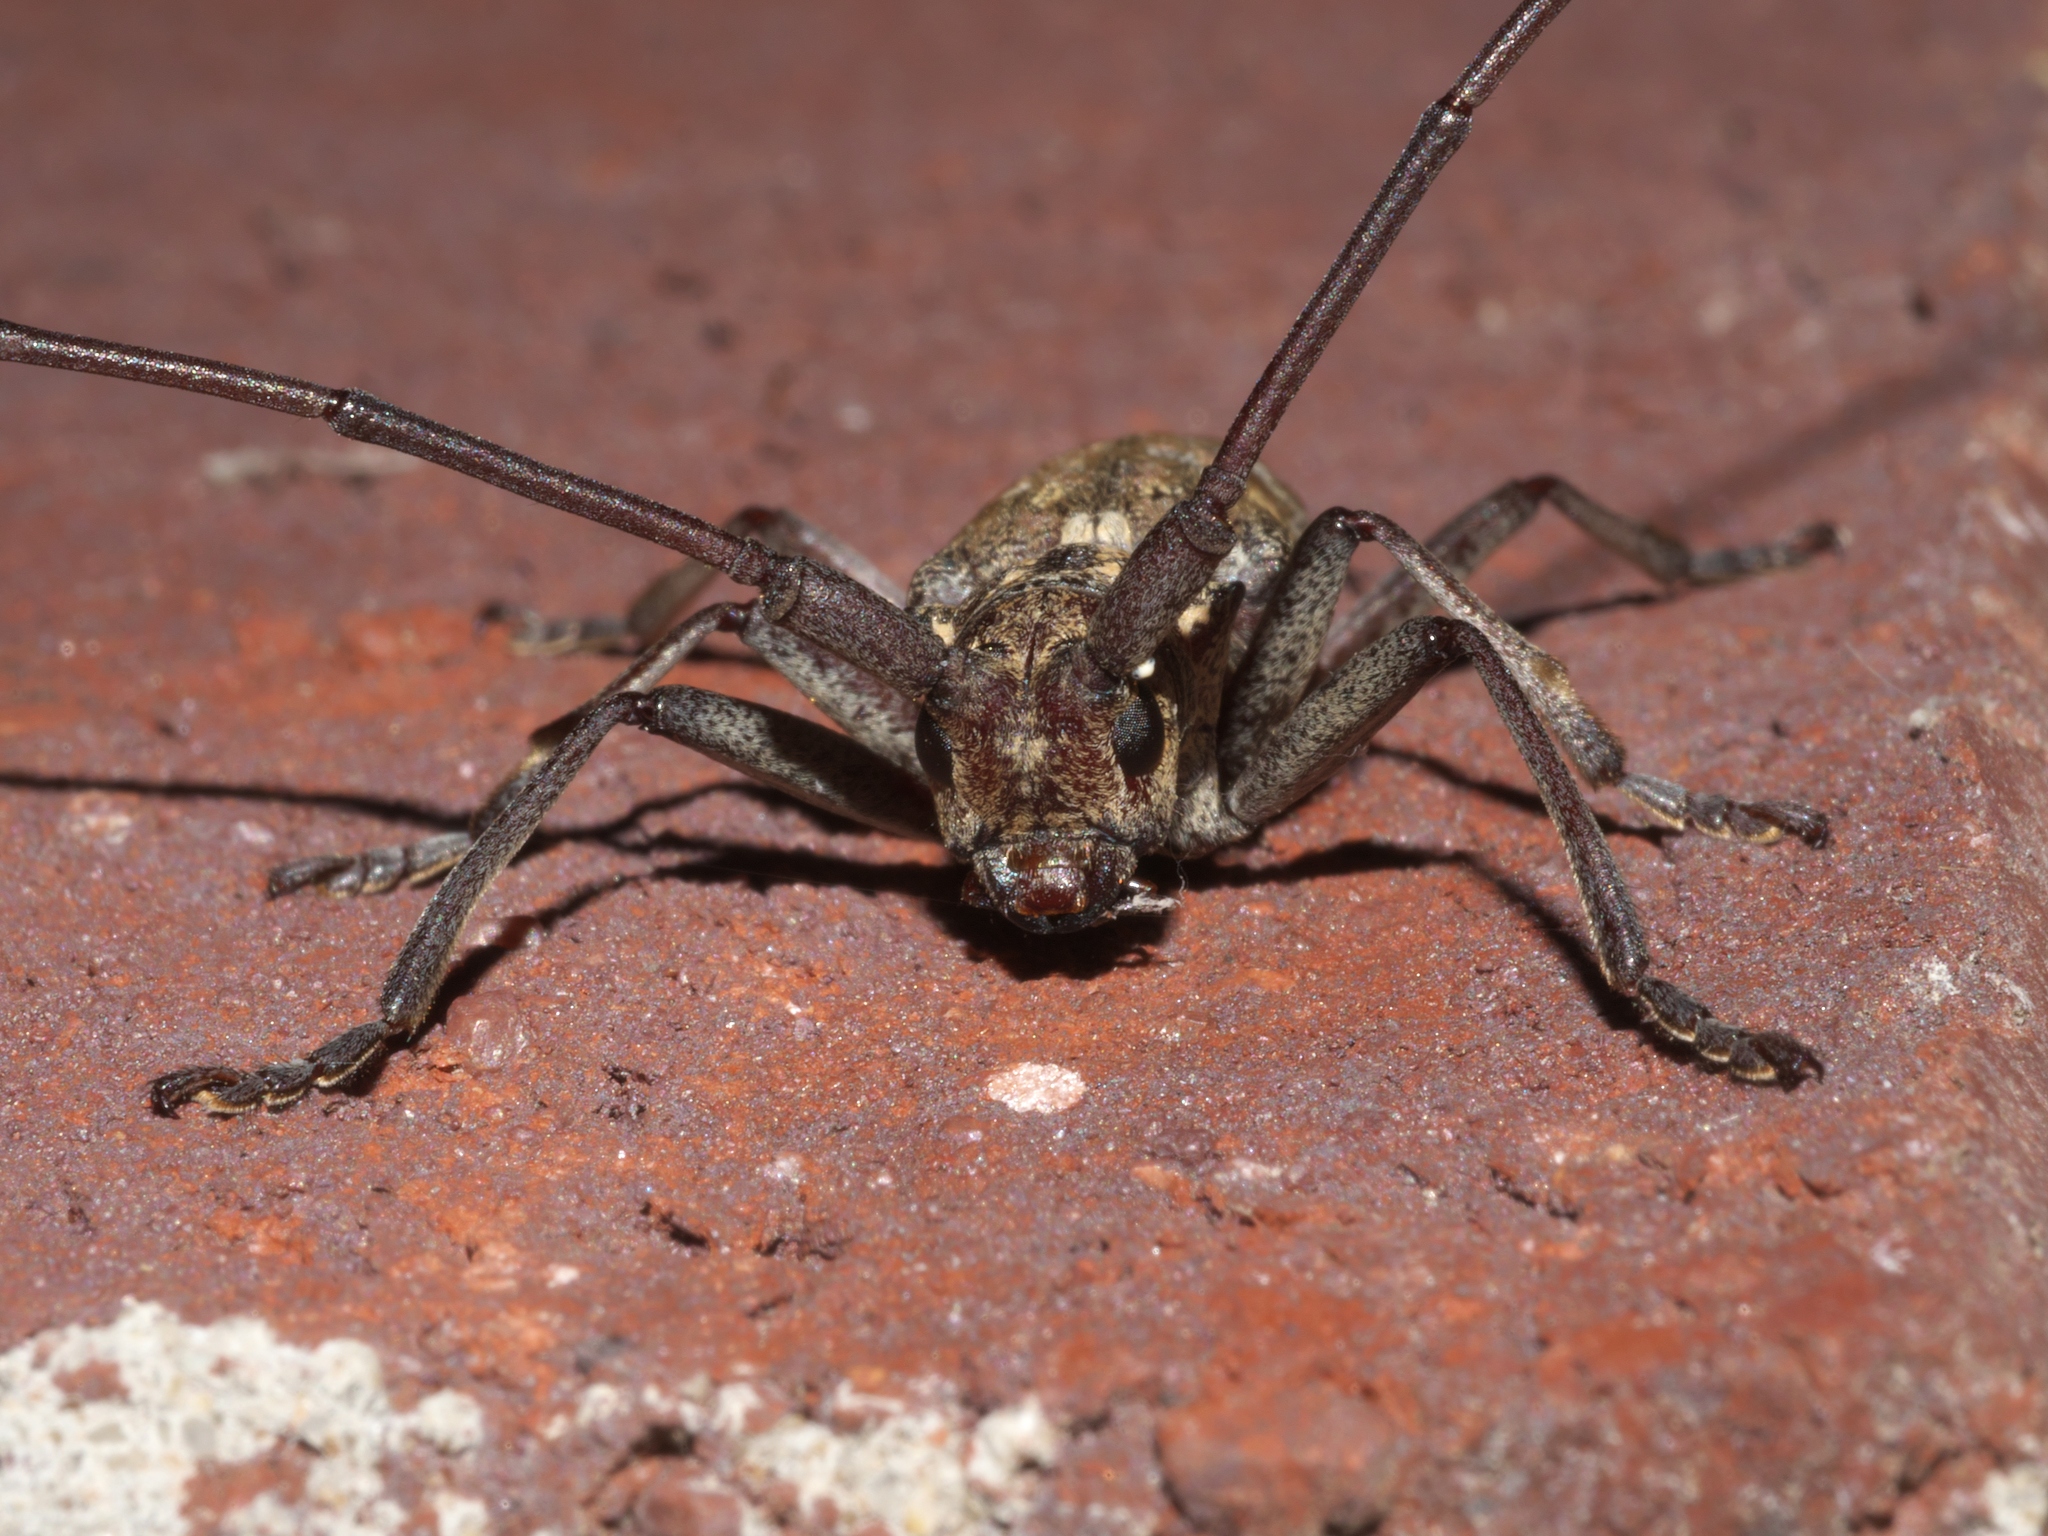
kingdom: Animalia
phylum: Arthropoda
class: Insecta
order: Coleoptera
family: Cerambycidae
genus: Monochamus
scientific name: Monochamus carolinensis
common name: Carolina pine sawyer
